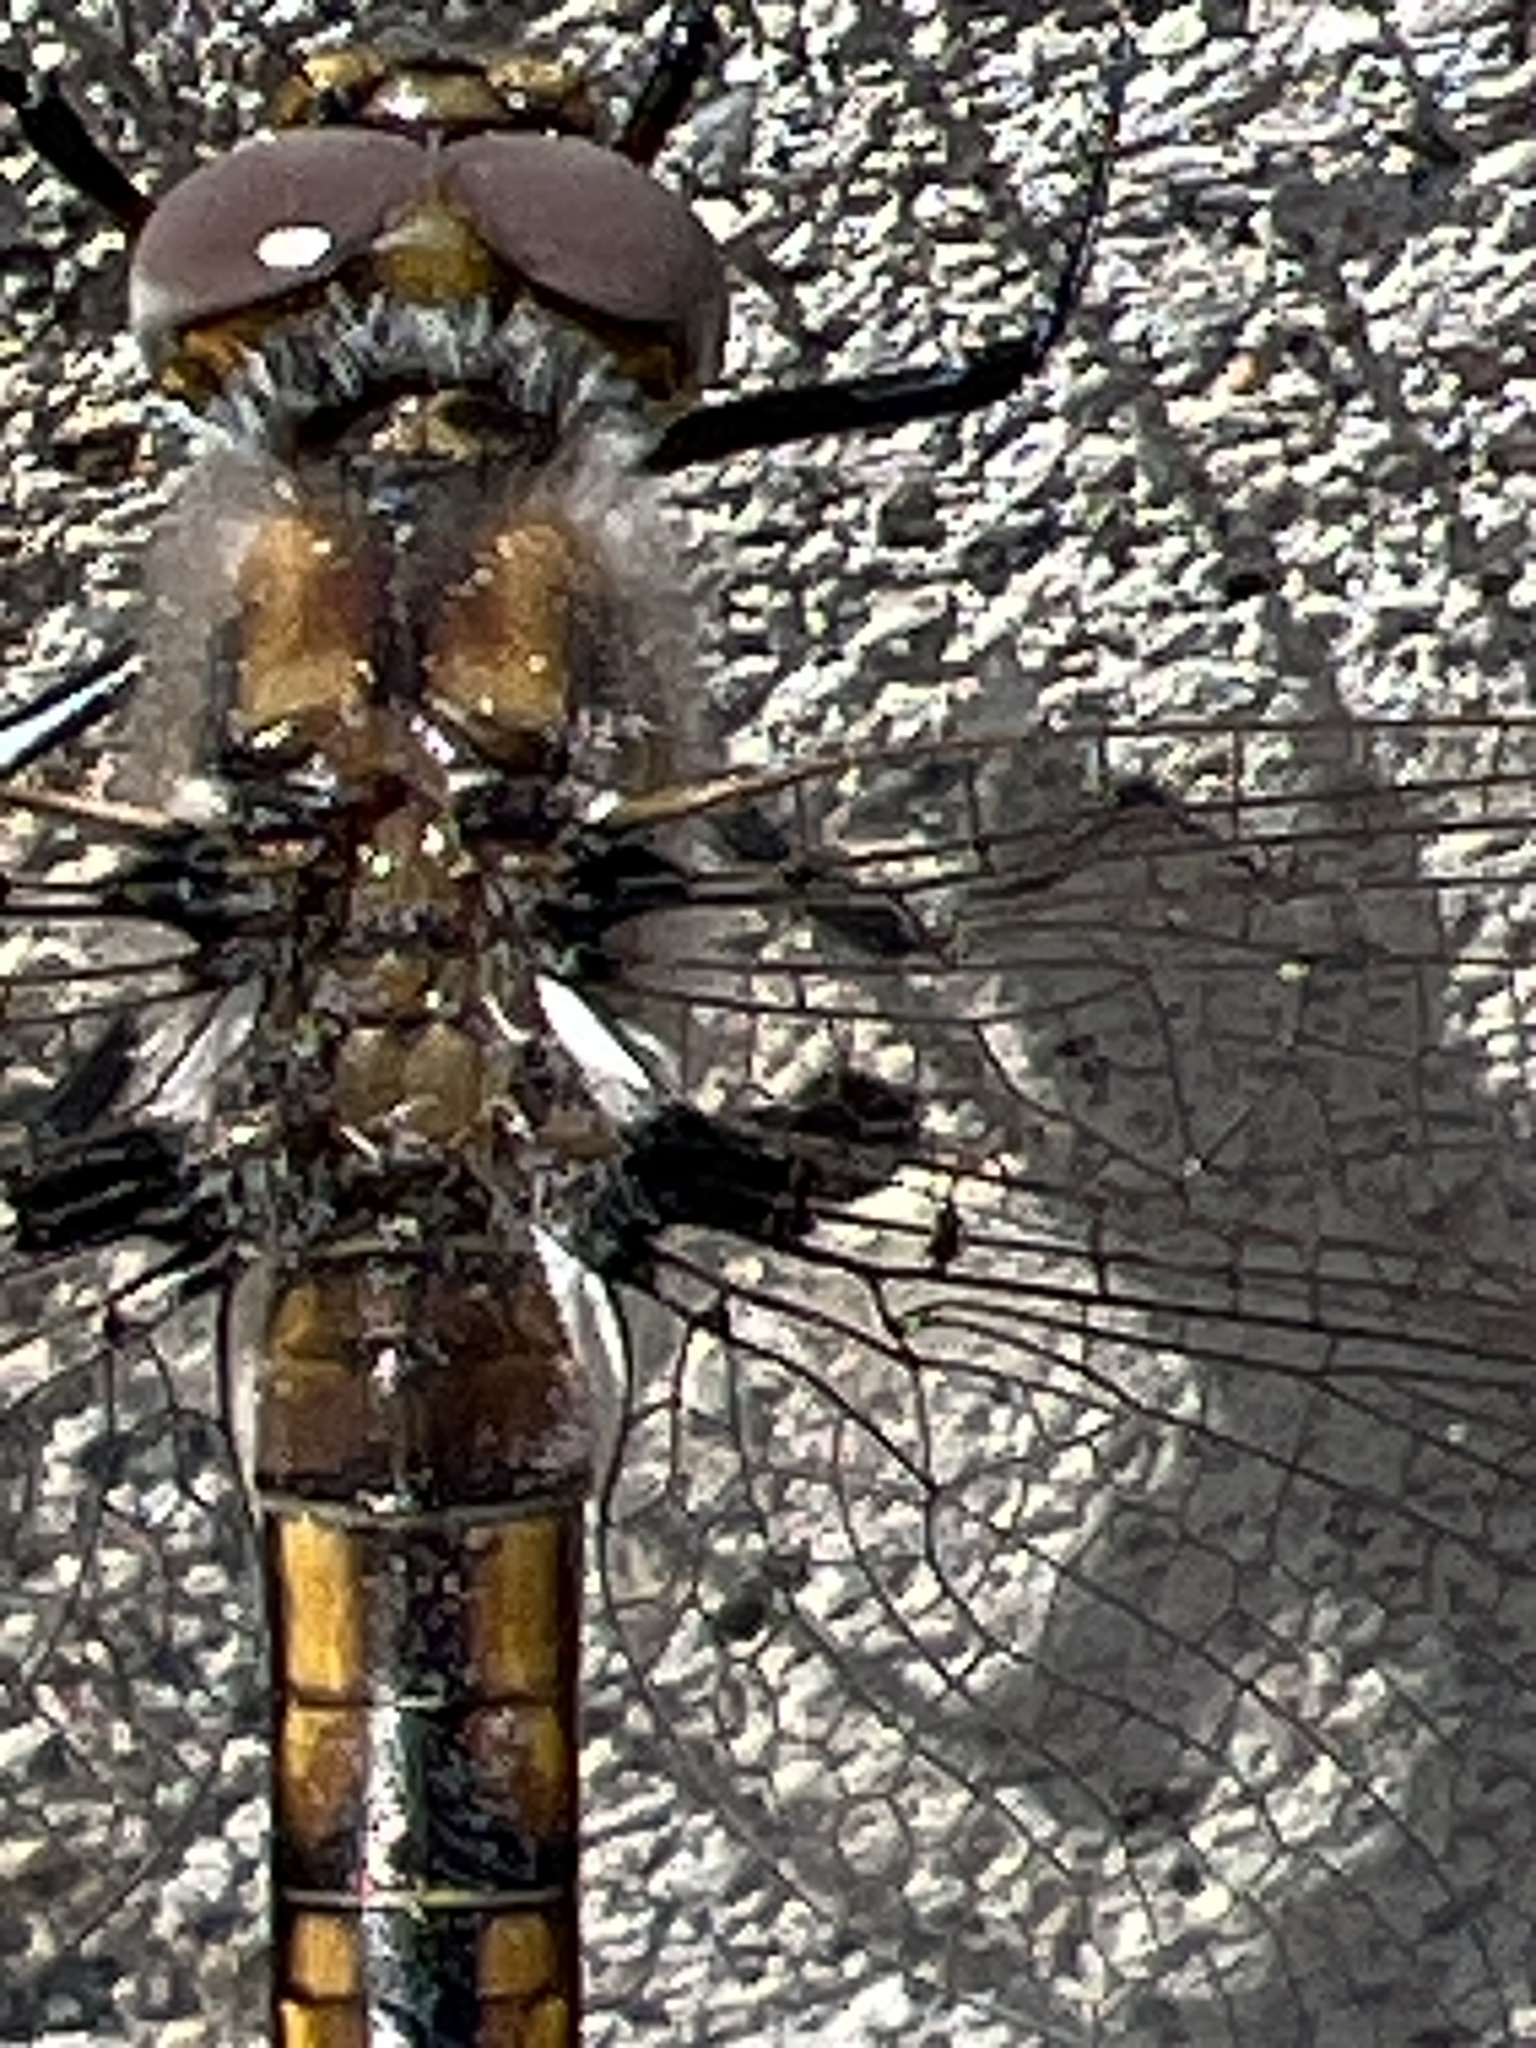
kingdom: Animalia
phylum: Arthropoda
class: Insecta
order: Odonata
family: Corduliidae
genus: Epitheca
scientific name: Epitheca canis
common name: Beaverpond baskettail
